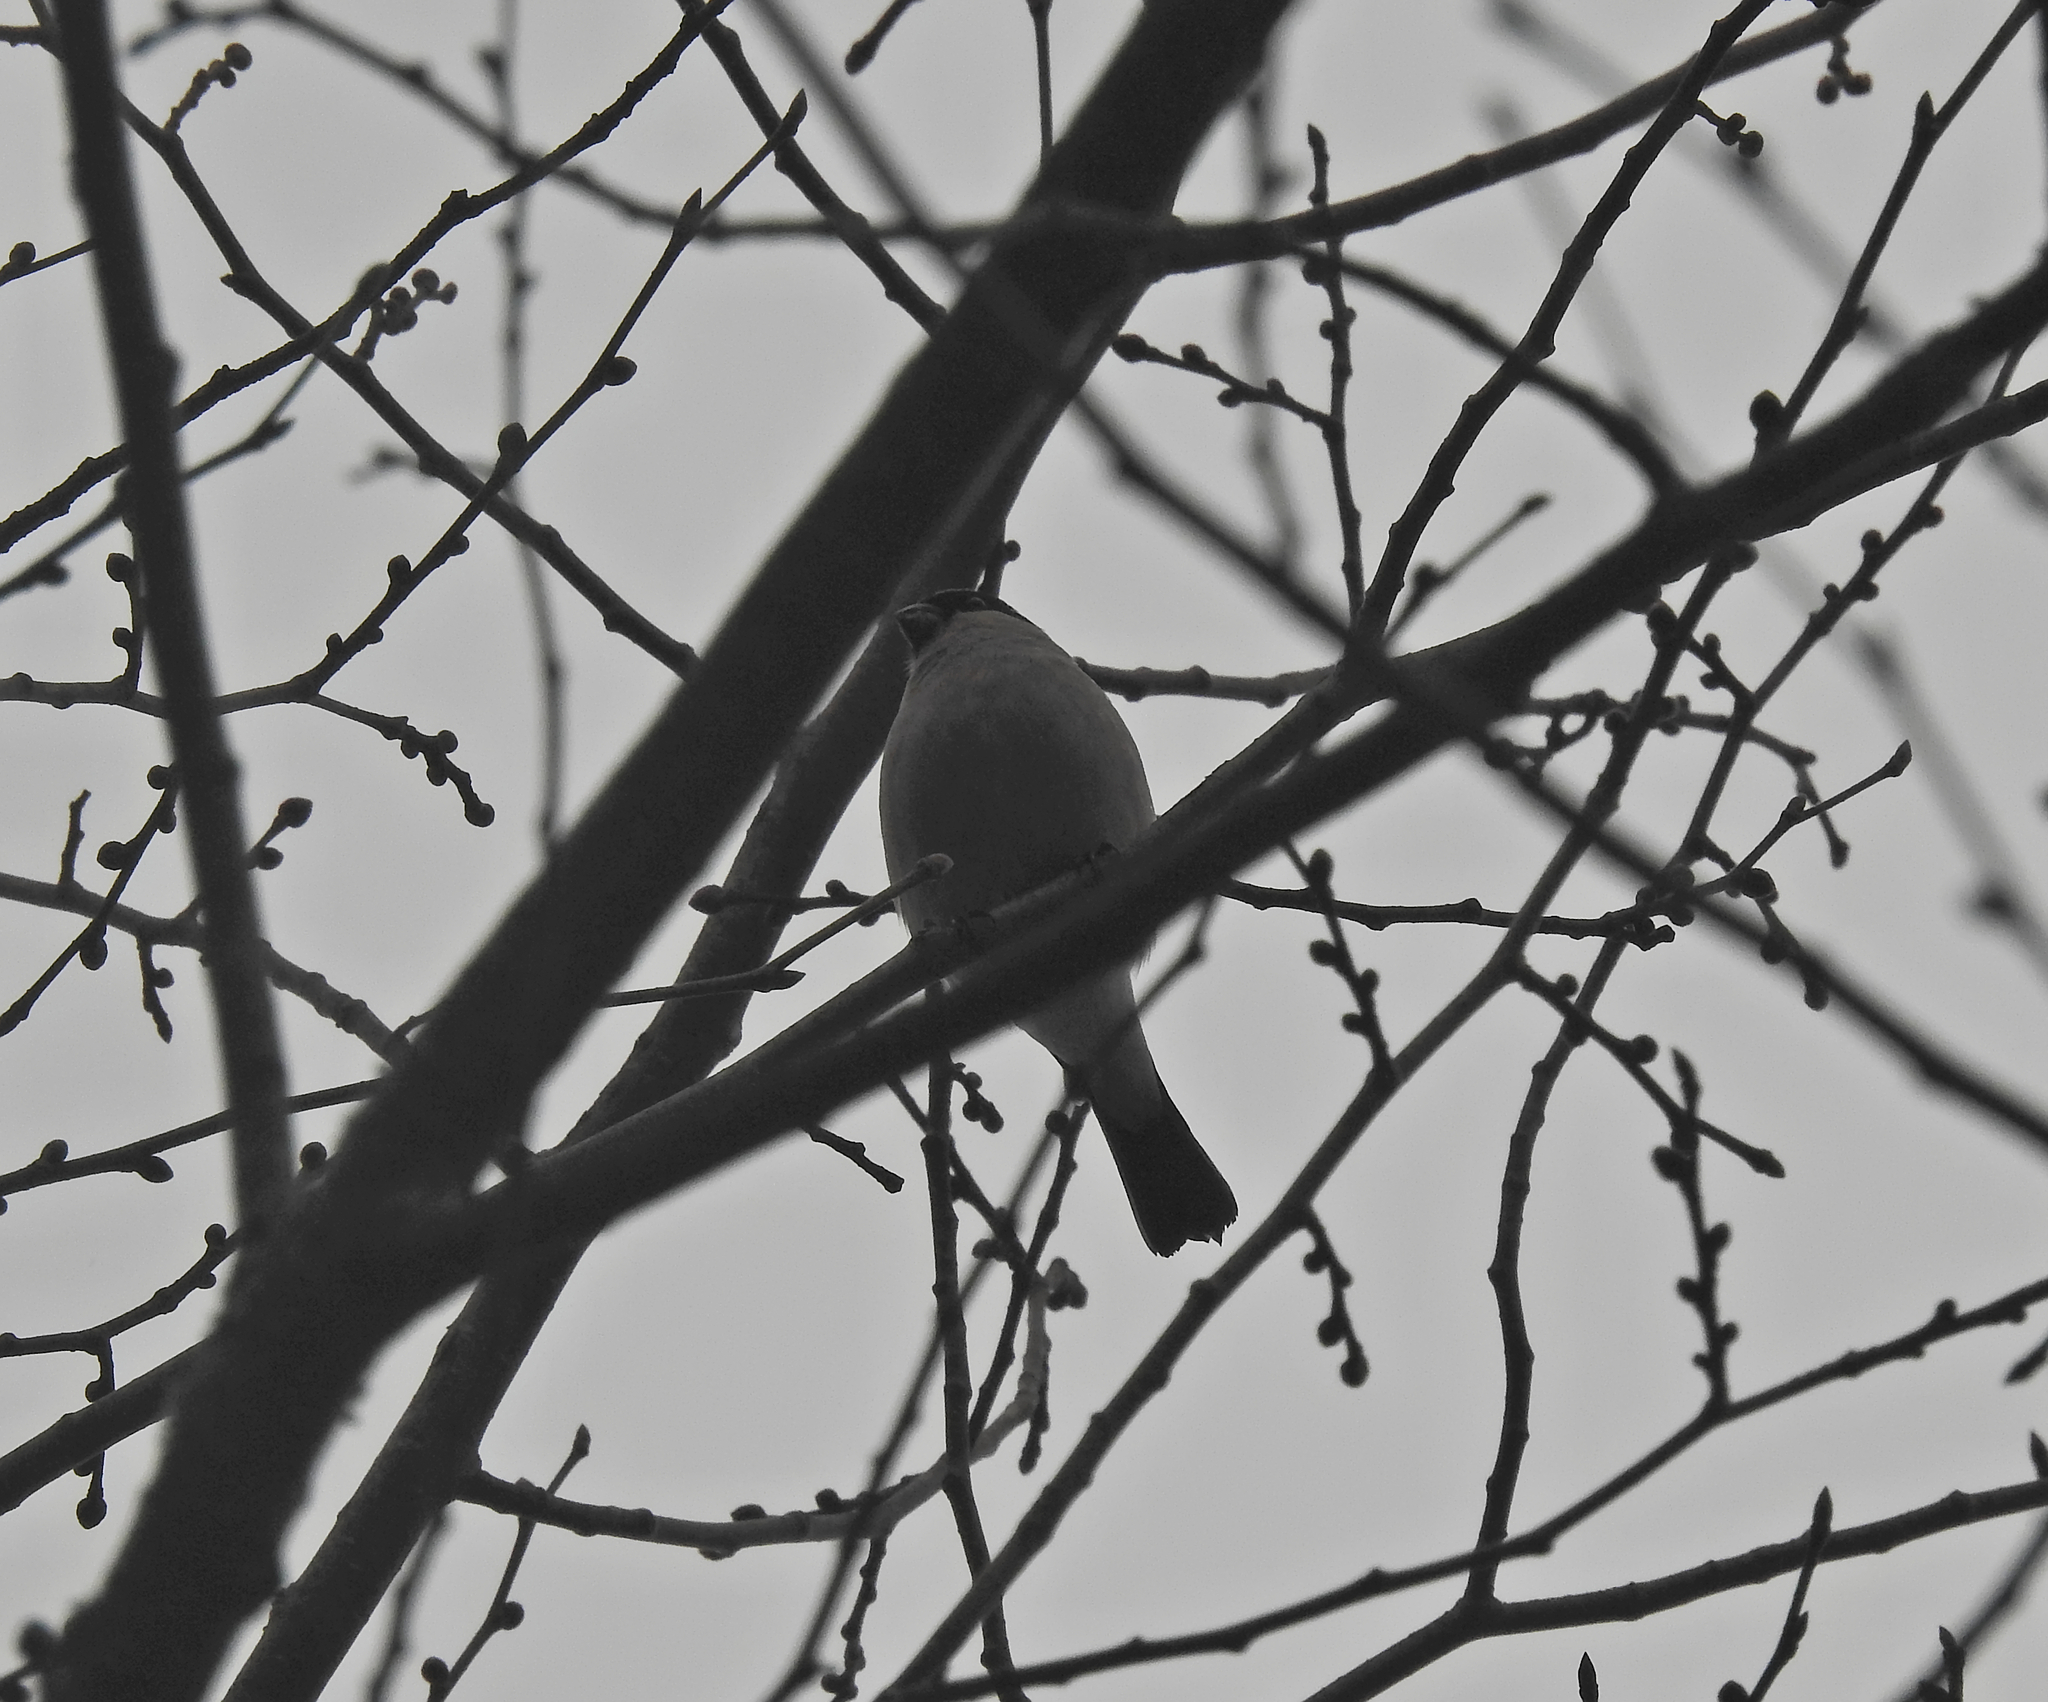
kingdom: Animalia
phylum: Chordata
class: Aves
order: Passeriformes
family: Fringillidae
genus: Pyrrhula
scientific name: Pyrrhula pyrrhula
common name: Eurasian bullfinch
